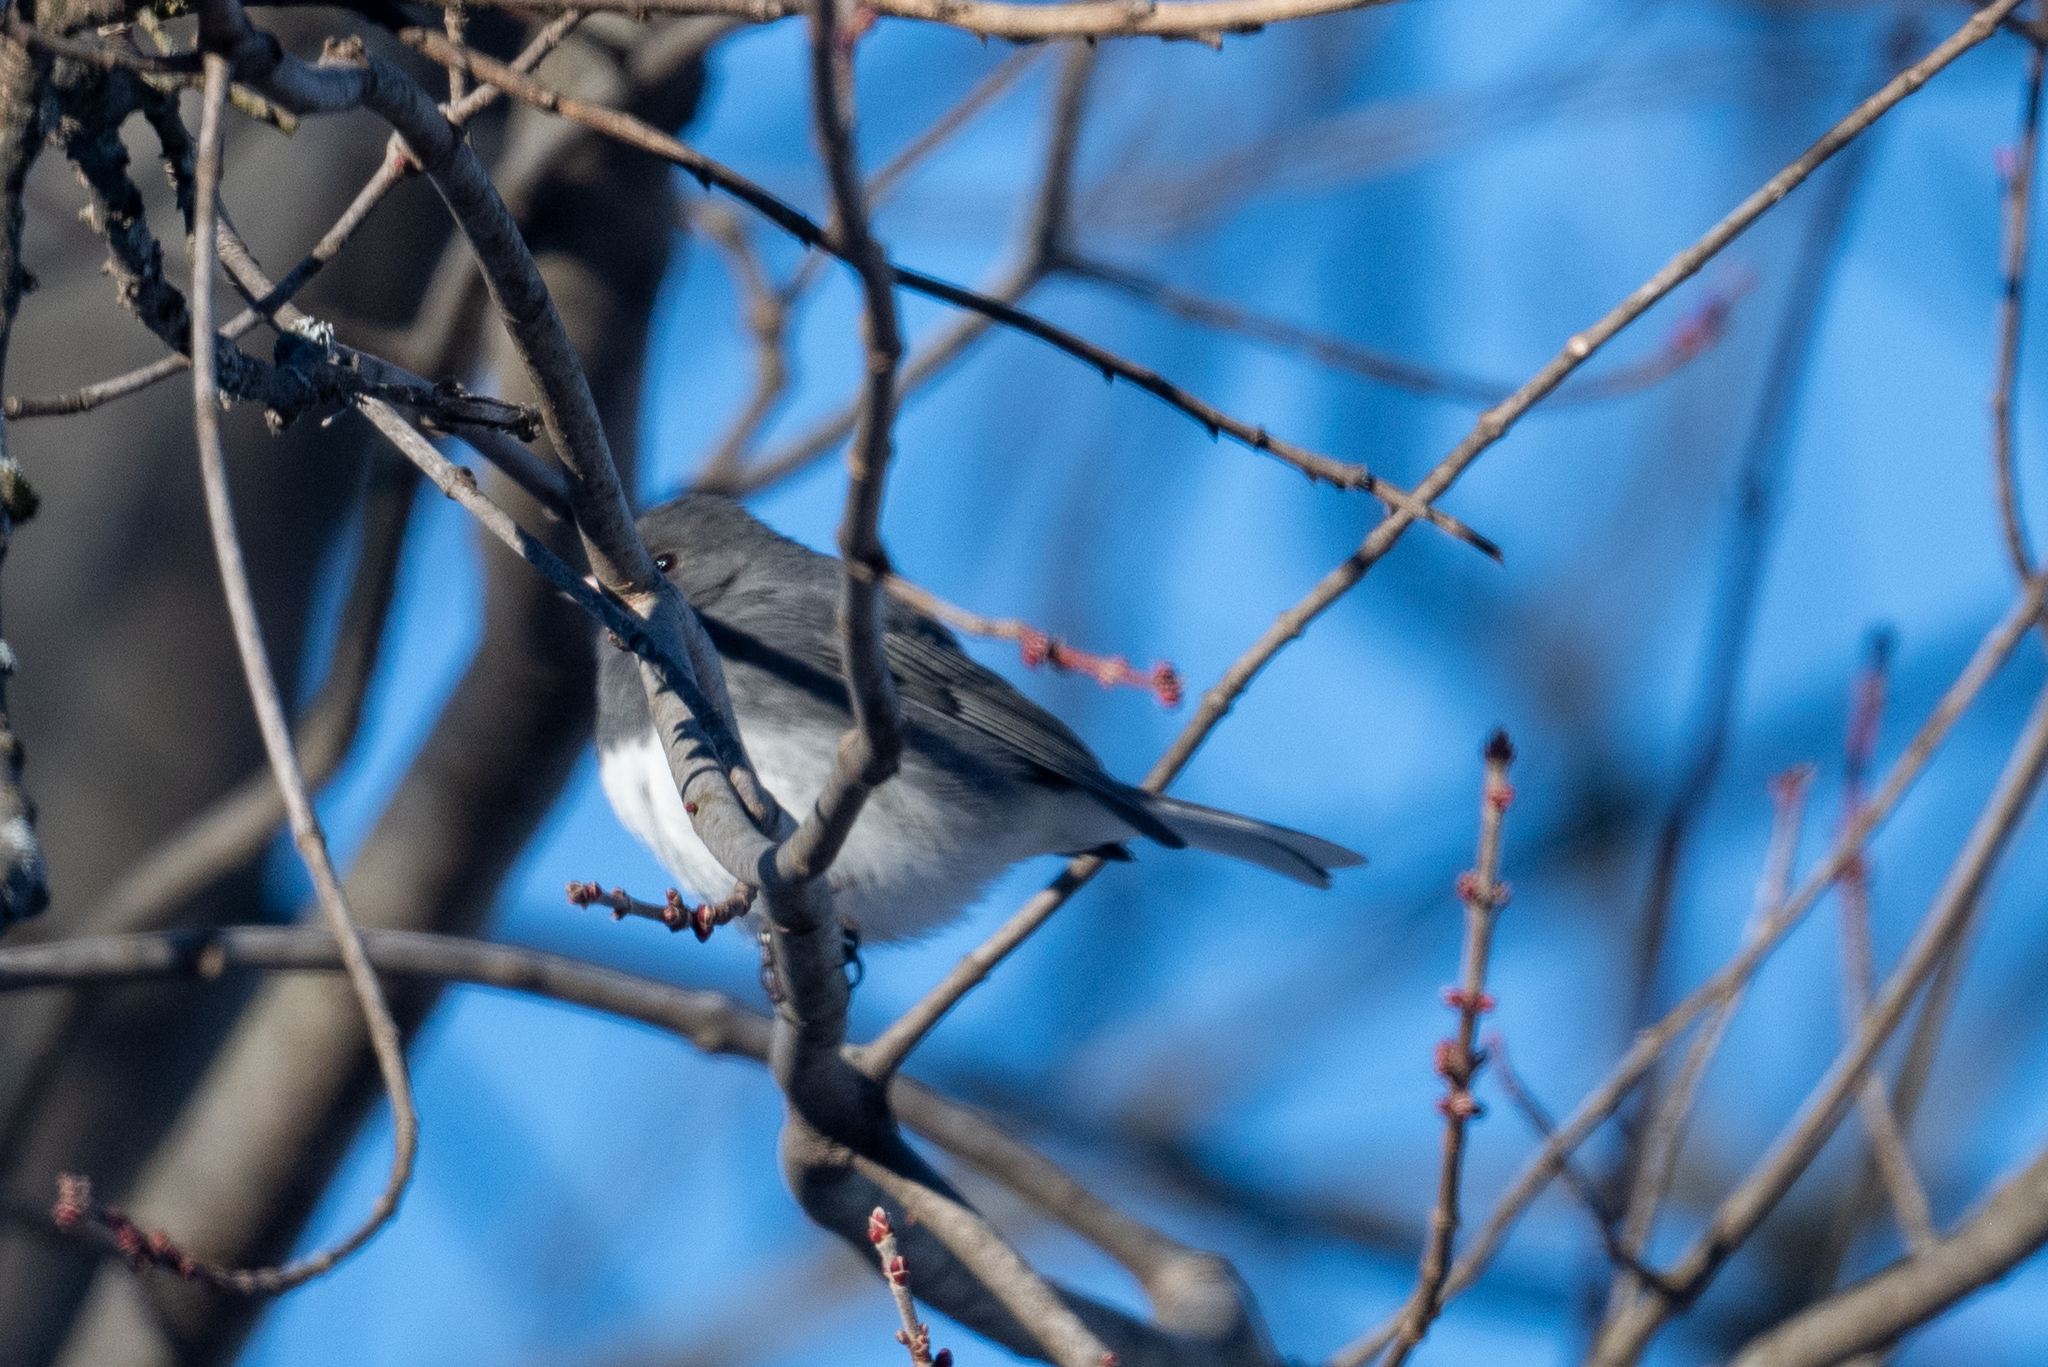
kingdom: Animalia
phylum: Chordata
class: Aves
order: Passeriformes
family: Passerellidae
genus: Junco
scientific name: Junco hyemalis
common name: Dark-eyed junco
